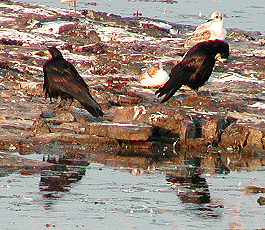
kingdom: Animalia
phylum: Chordata
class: Aves
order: Passeriformes
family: Corvidae
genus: Corvus
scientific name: Corvus frugilegus
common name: Rook
